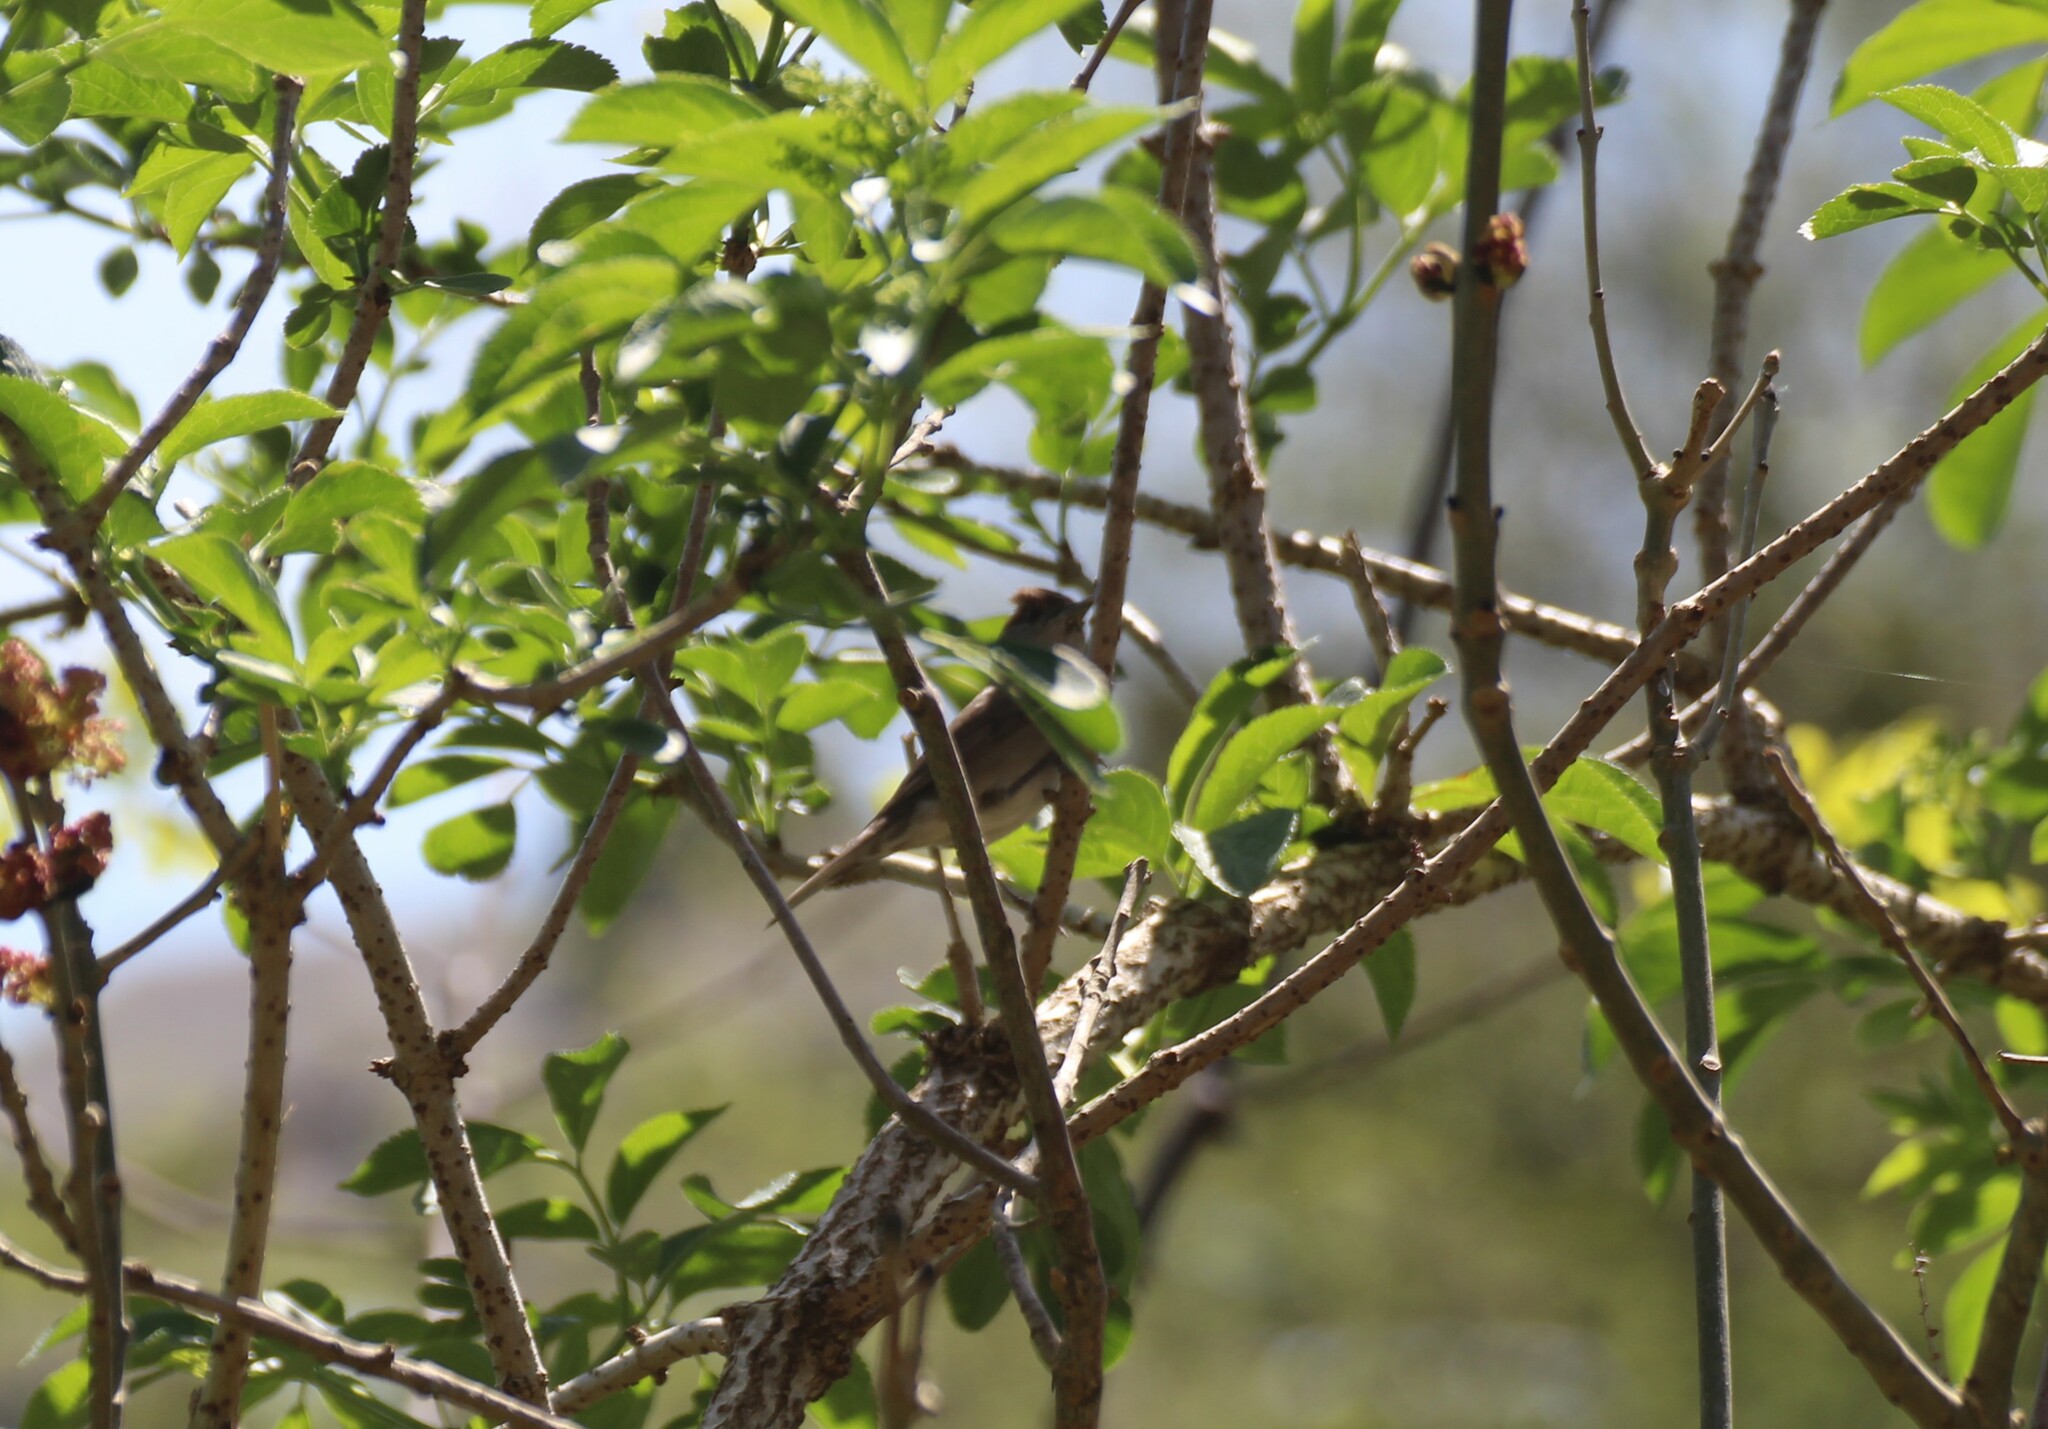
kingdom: Animalia
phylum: Chordata
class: Aves
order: Passeriformes
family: Sylviidae
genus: Sylvia
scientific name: Sylvia atricapilla
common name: Eurasian blackcap
